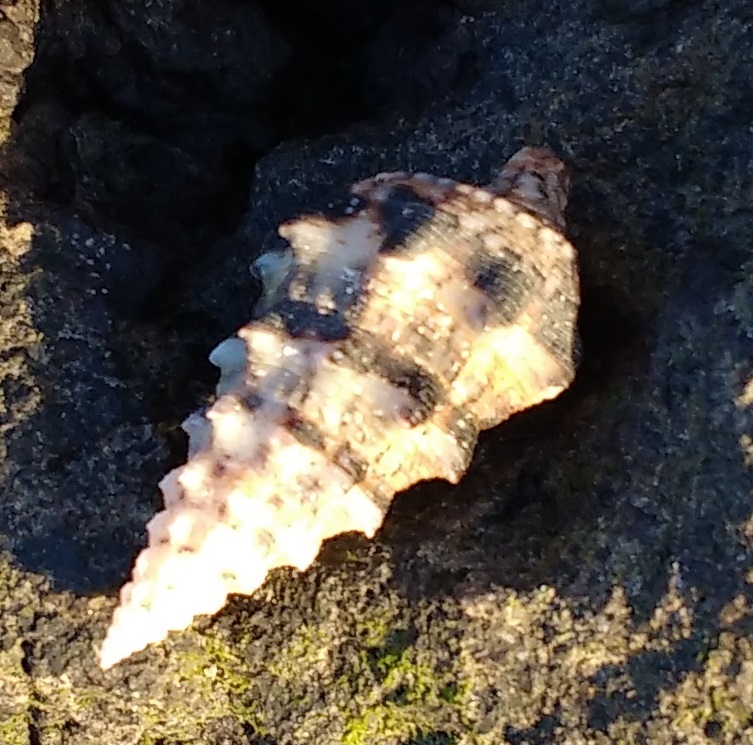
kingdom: Animalia
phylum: Mollusca
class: Gastropoda
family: Cerithiidae
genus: Cerithium
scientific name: Cerithium vulgatum
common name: European cerith
